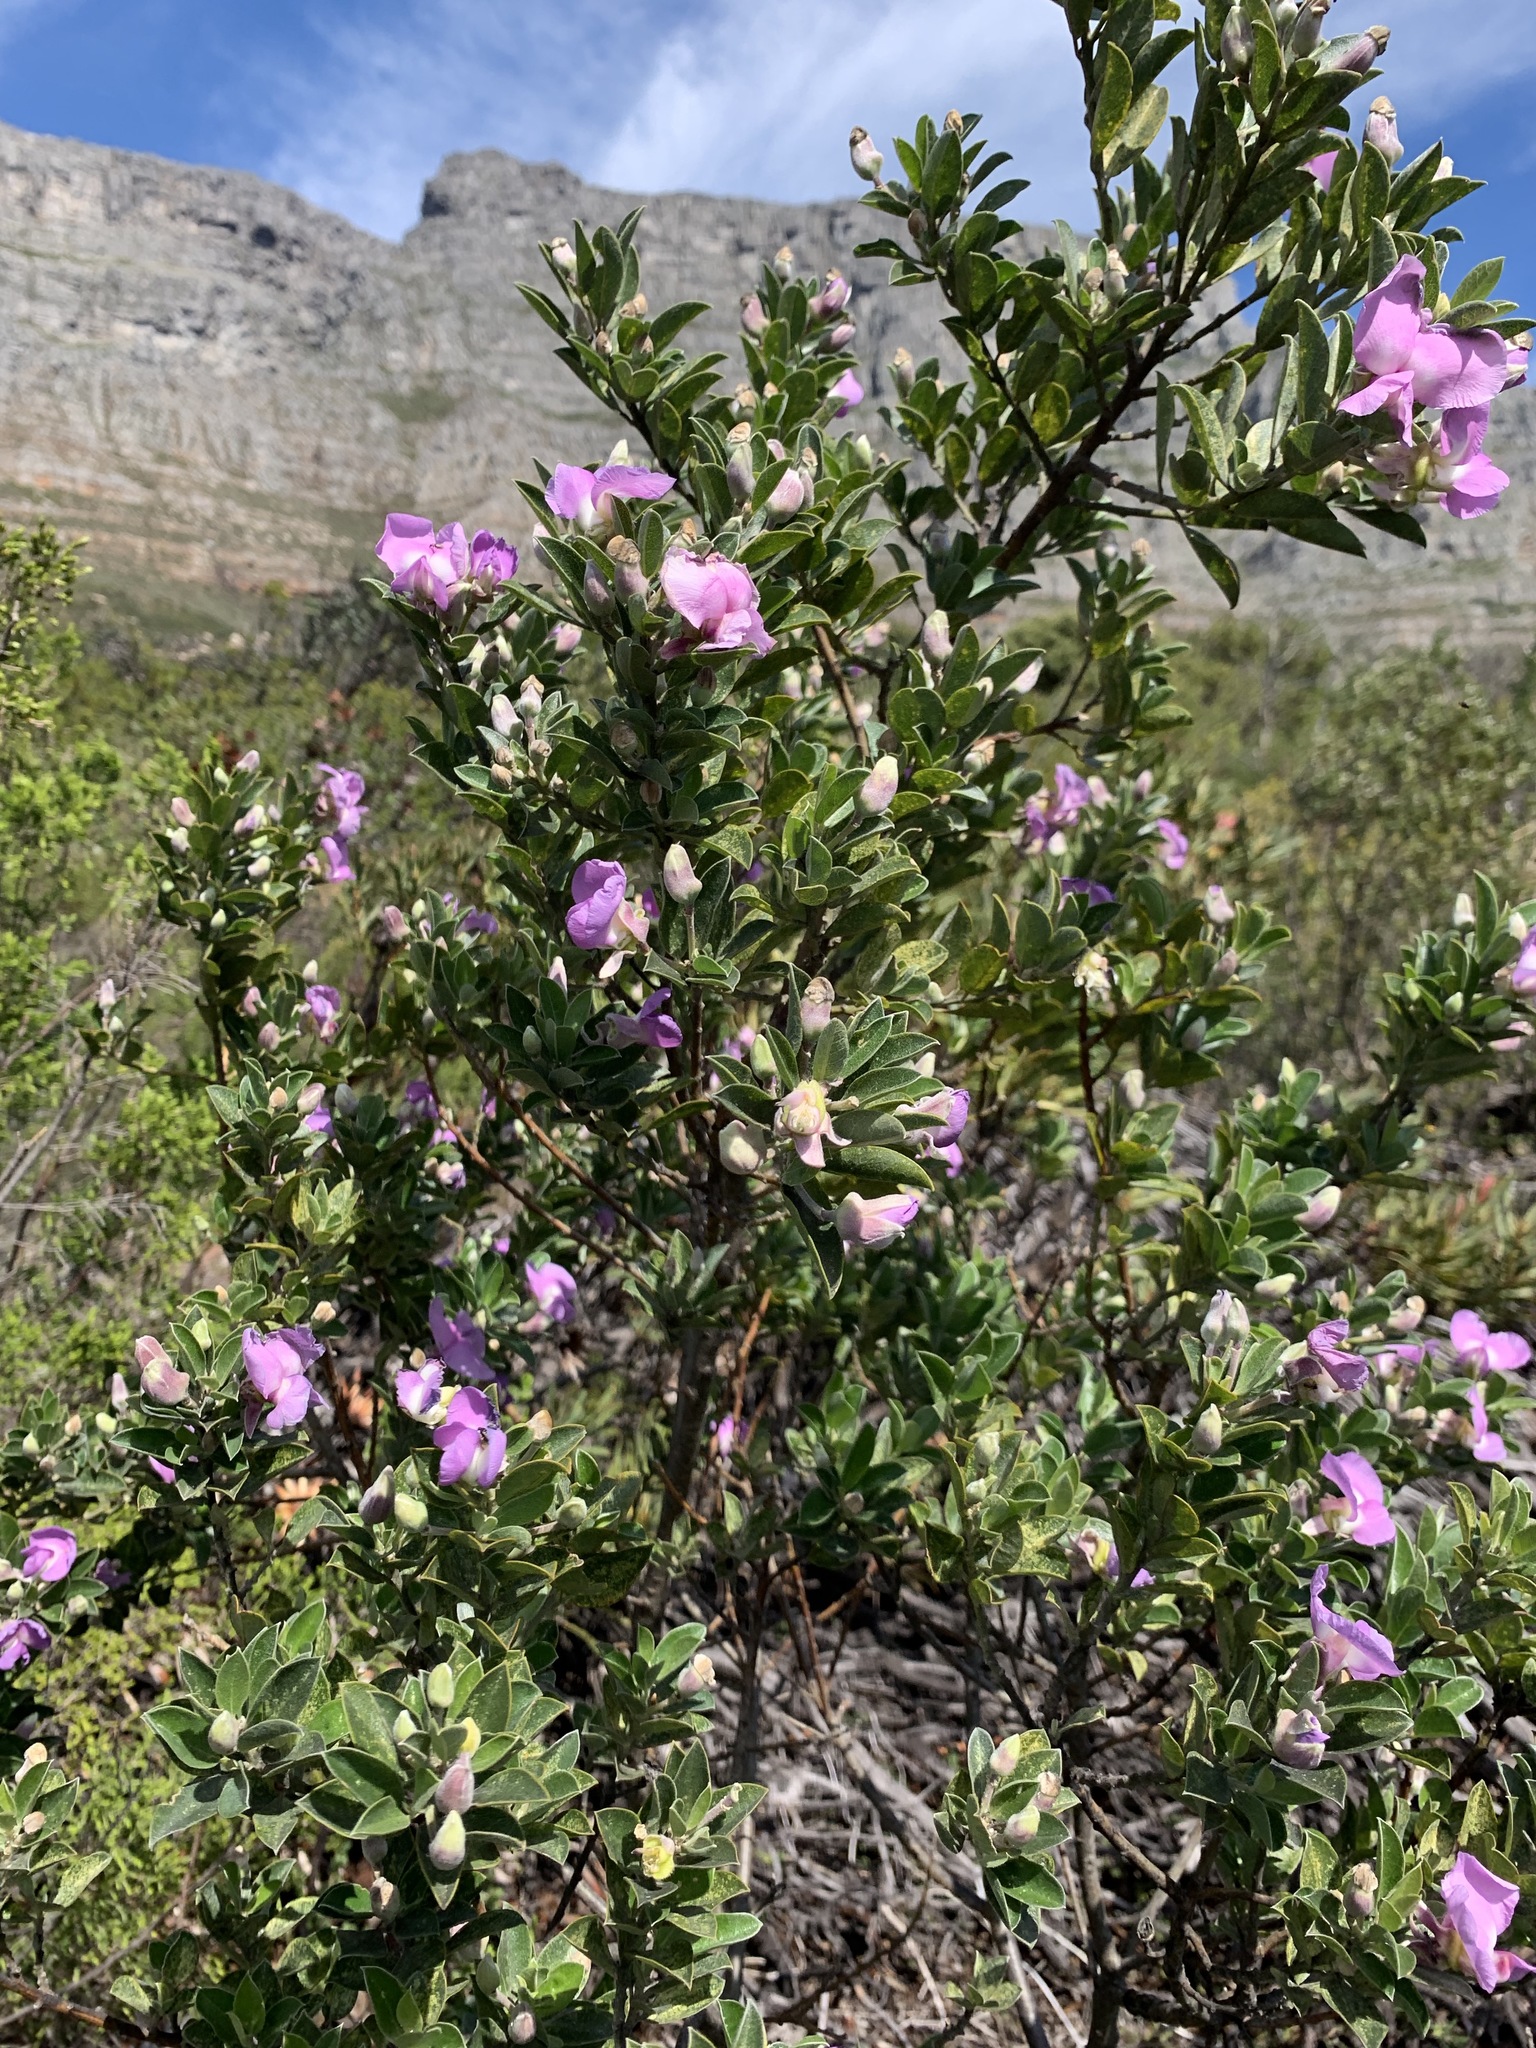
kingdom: Plantae
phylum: Tracheophyta
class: Magnoliopsida
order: Fabales
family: Fabaceae
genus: Podalyria
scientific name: Podalyria calyptrata
